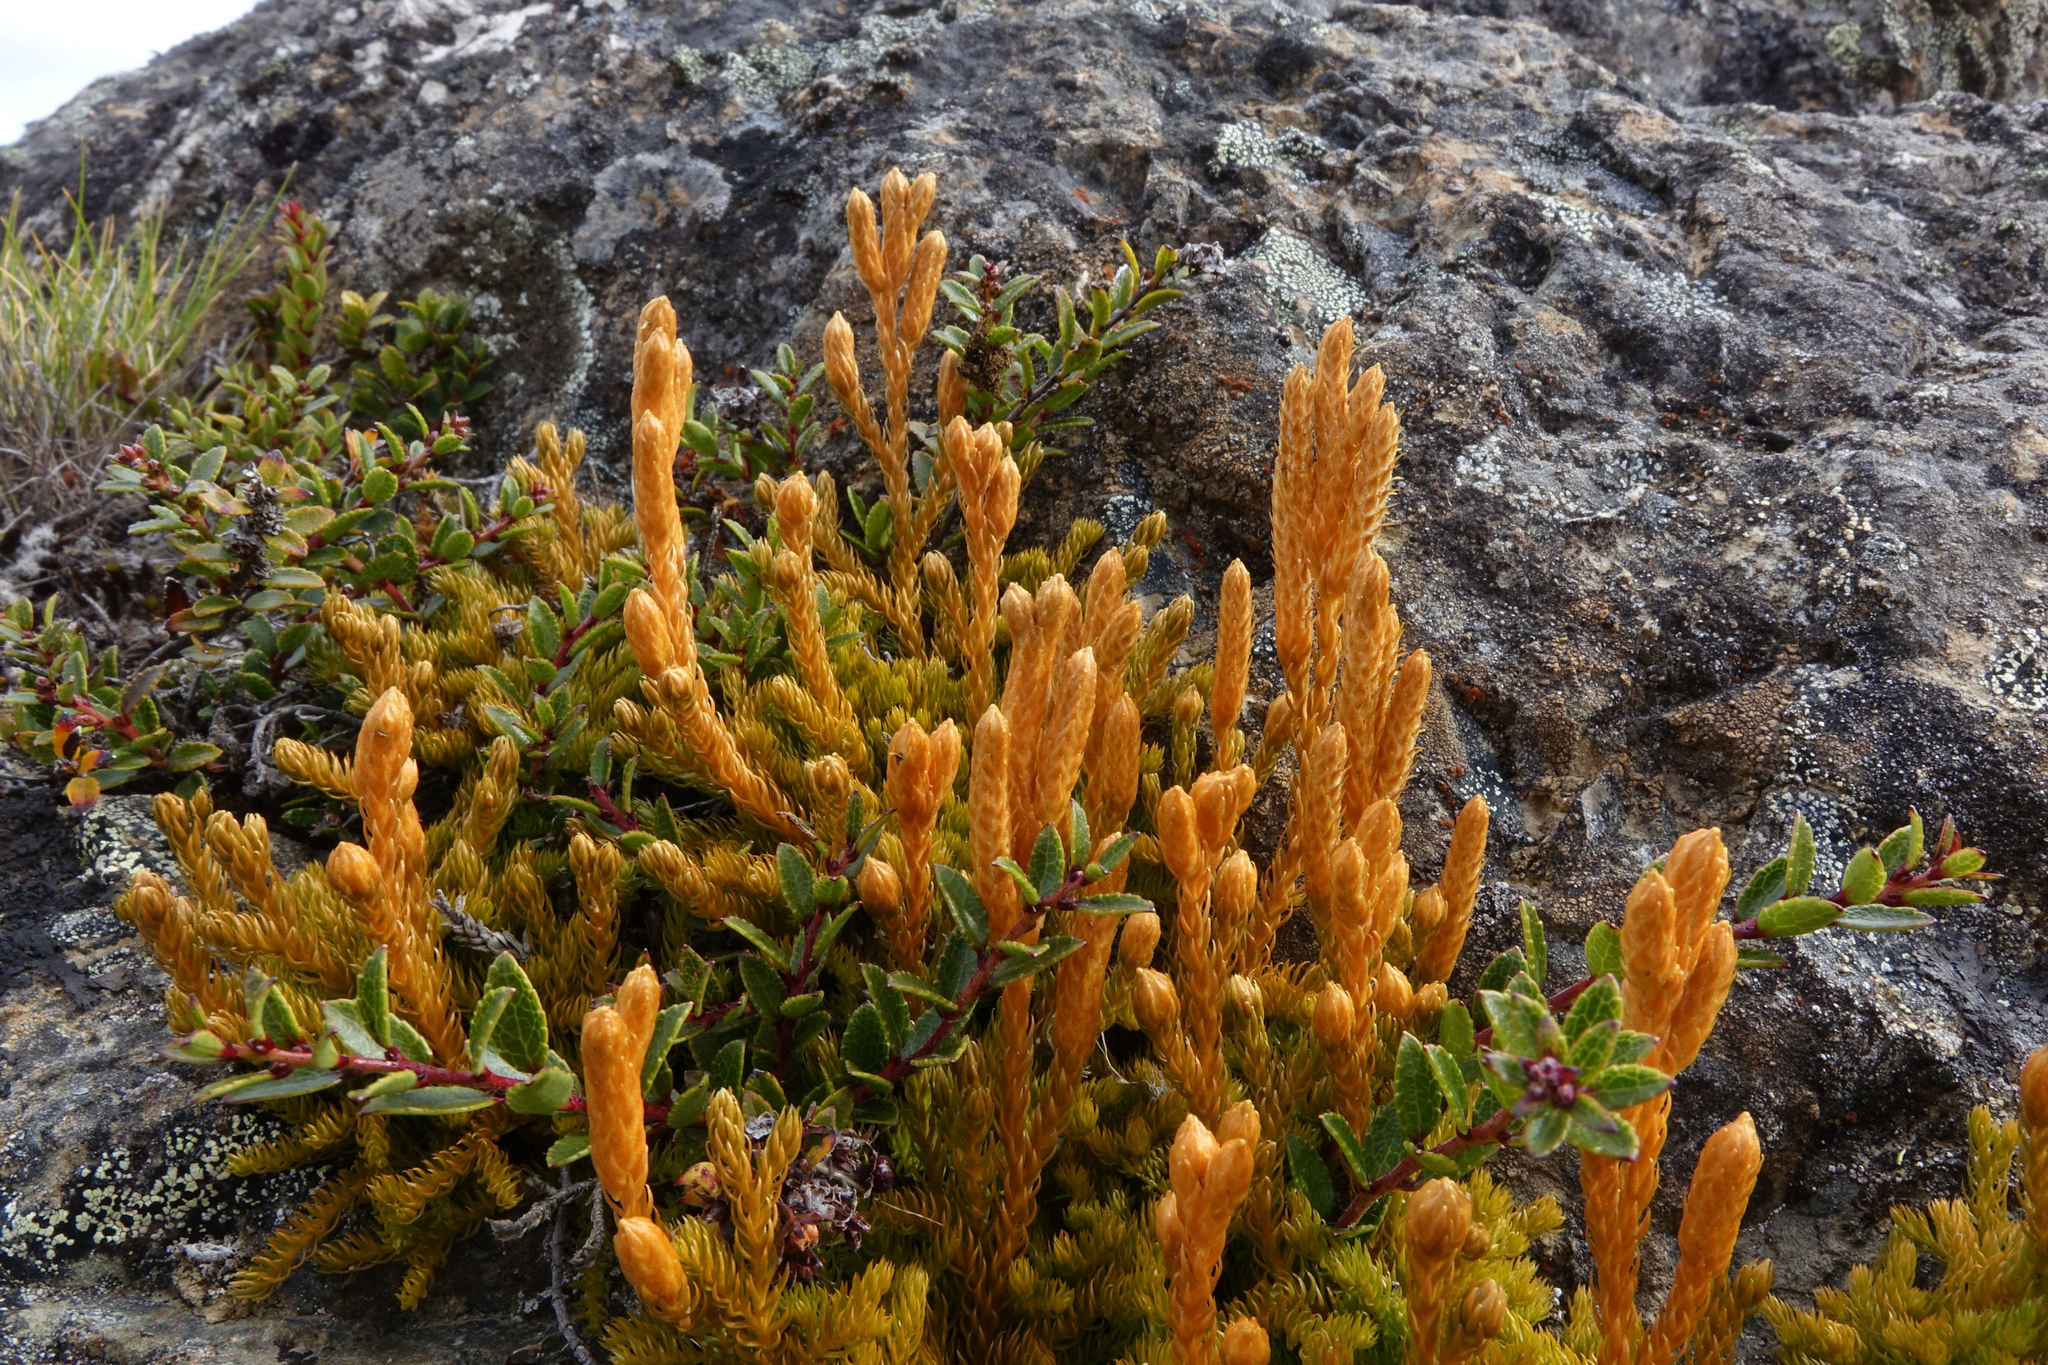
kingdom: Plantae
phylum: Tracheophyta
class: Lycopodiopsida
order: Lycopodiales
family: Lycopodiaceae
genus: Austrolycopodium
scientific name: Austrolycopodium fastigiatum
